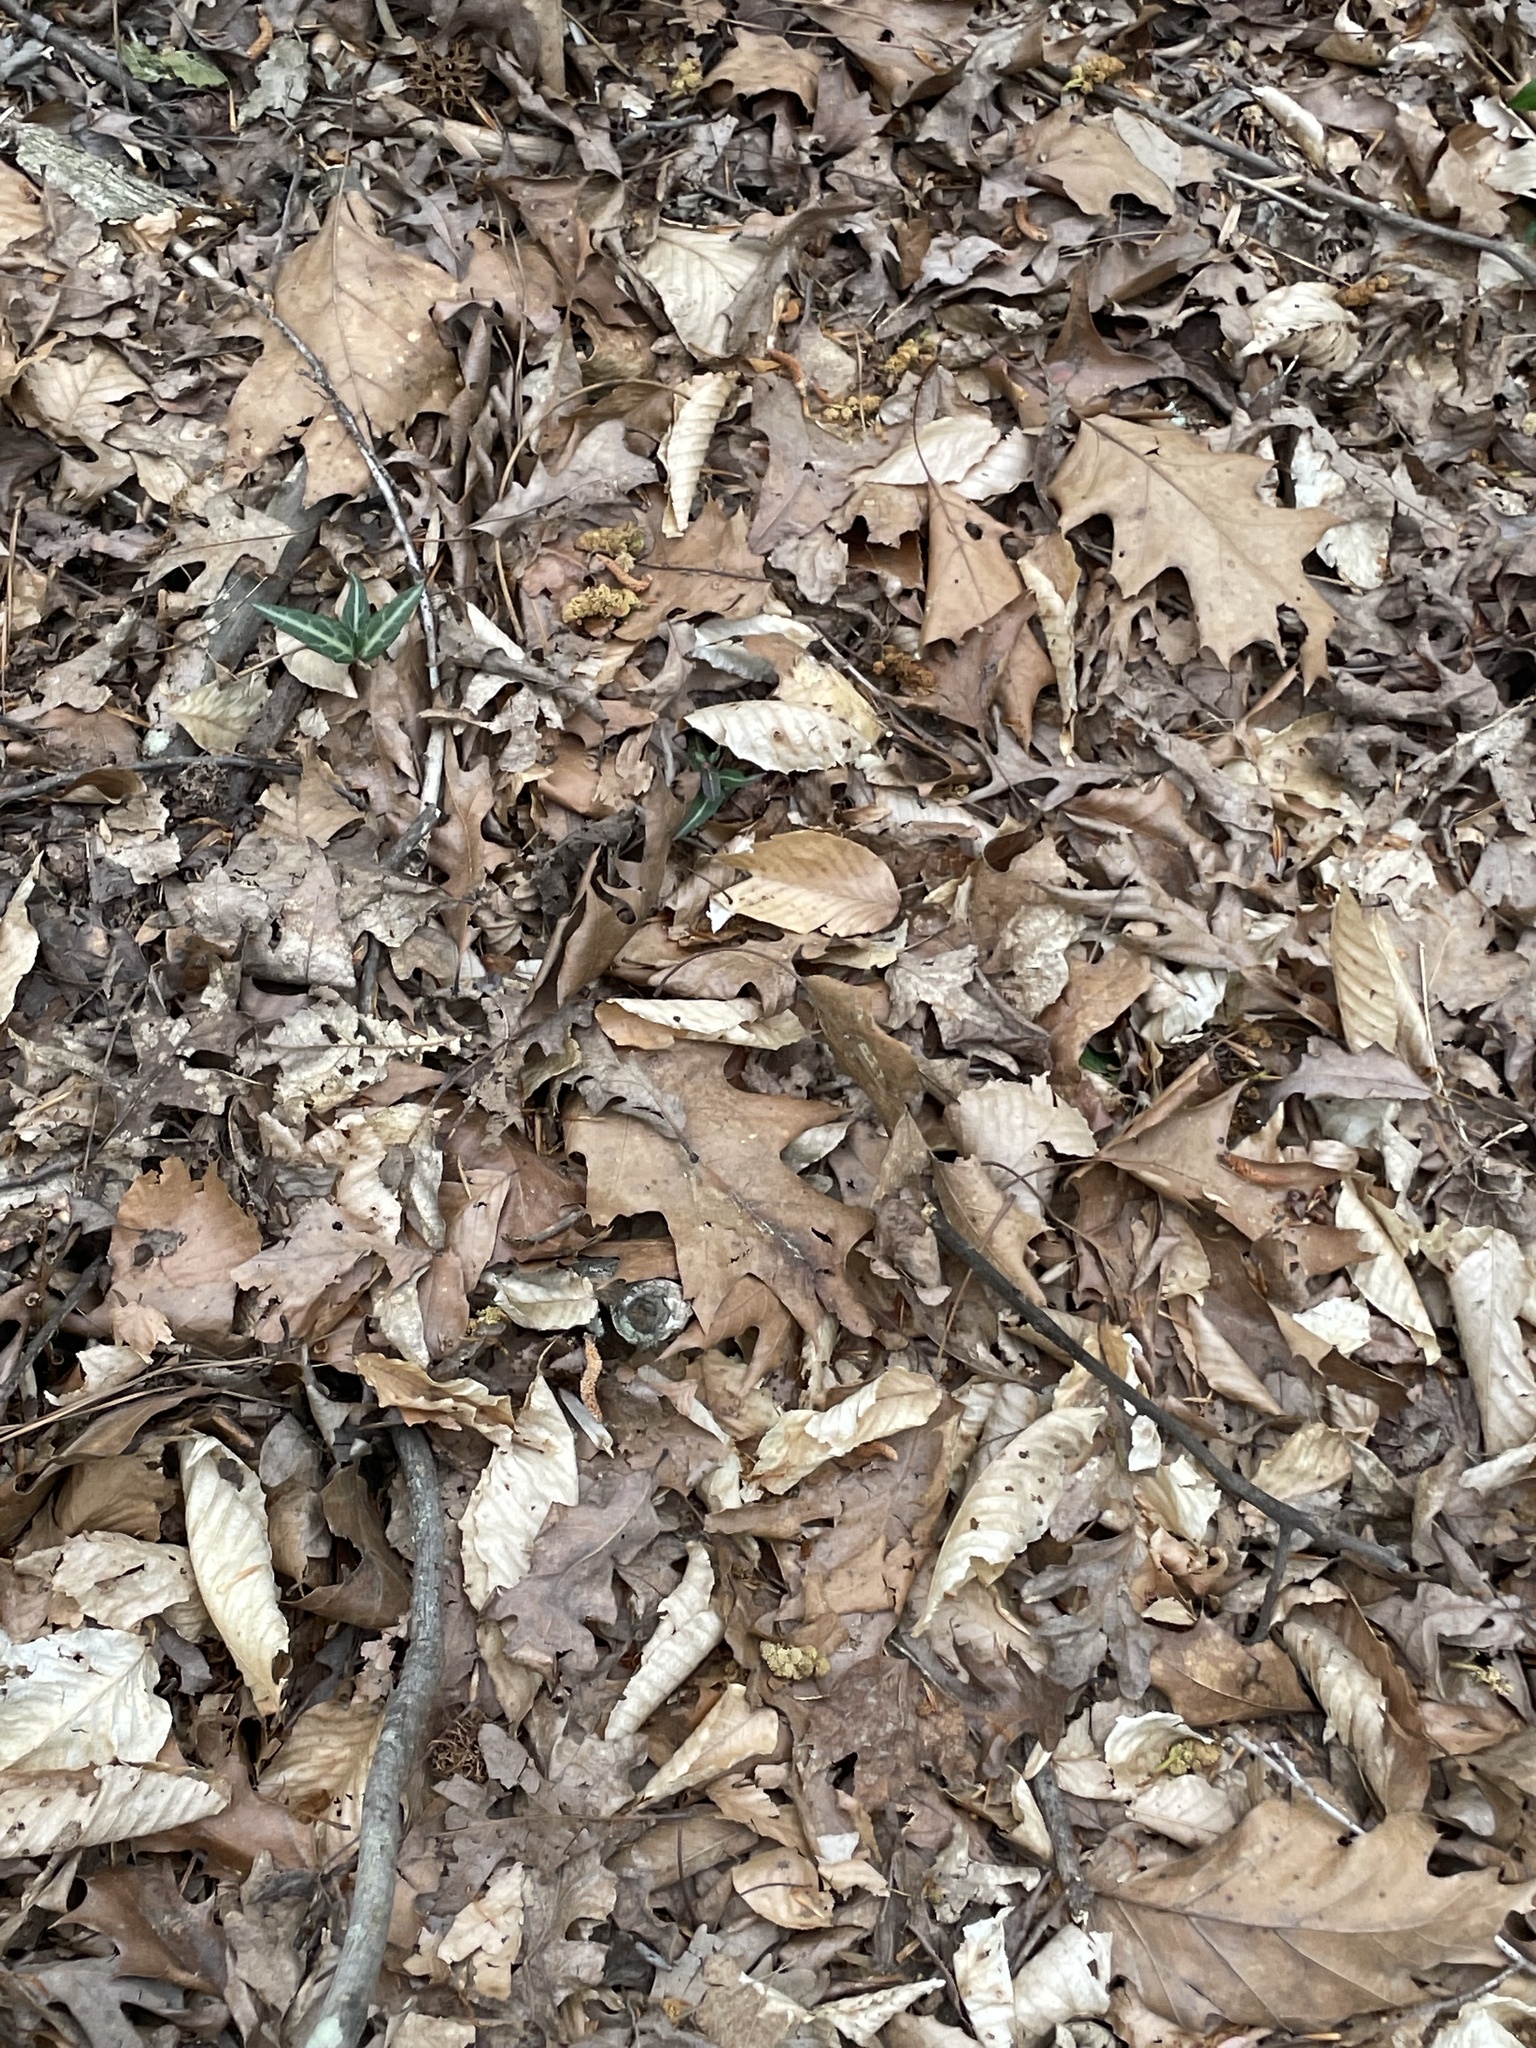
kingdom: Plantae
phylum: Tracheophyta
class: Magnoliopsida
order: Ericales
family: Ericaceae
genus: Chimaphila
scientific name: Chimaphila maculata
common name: Spotted pipsissewa
